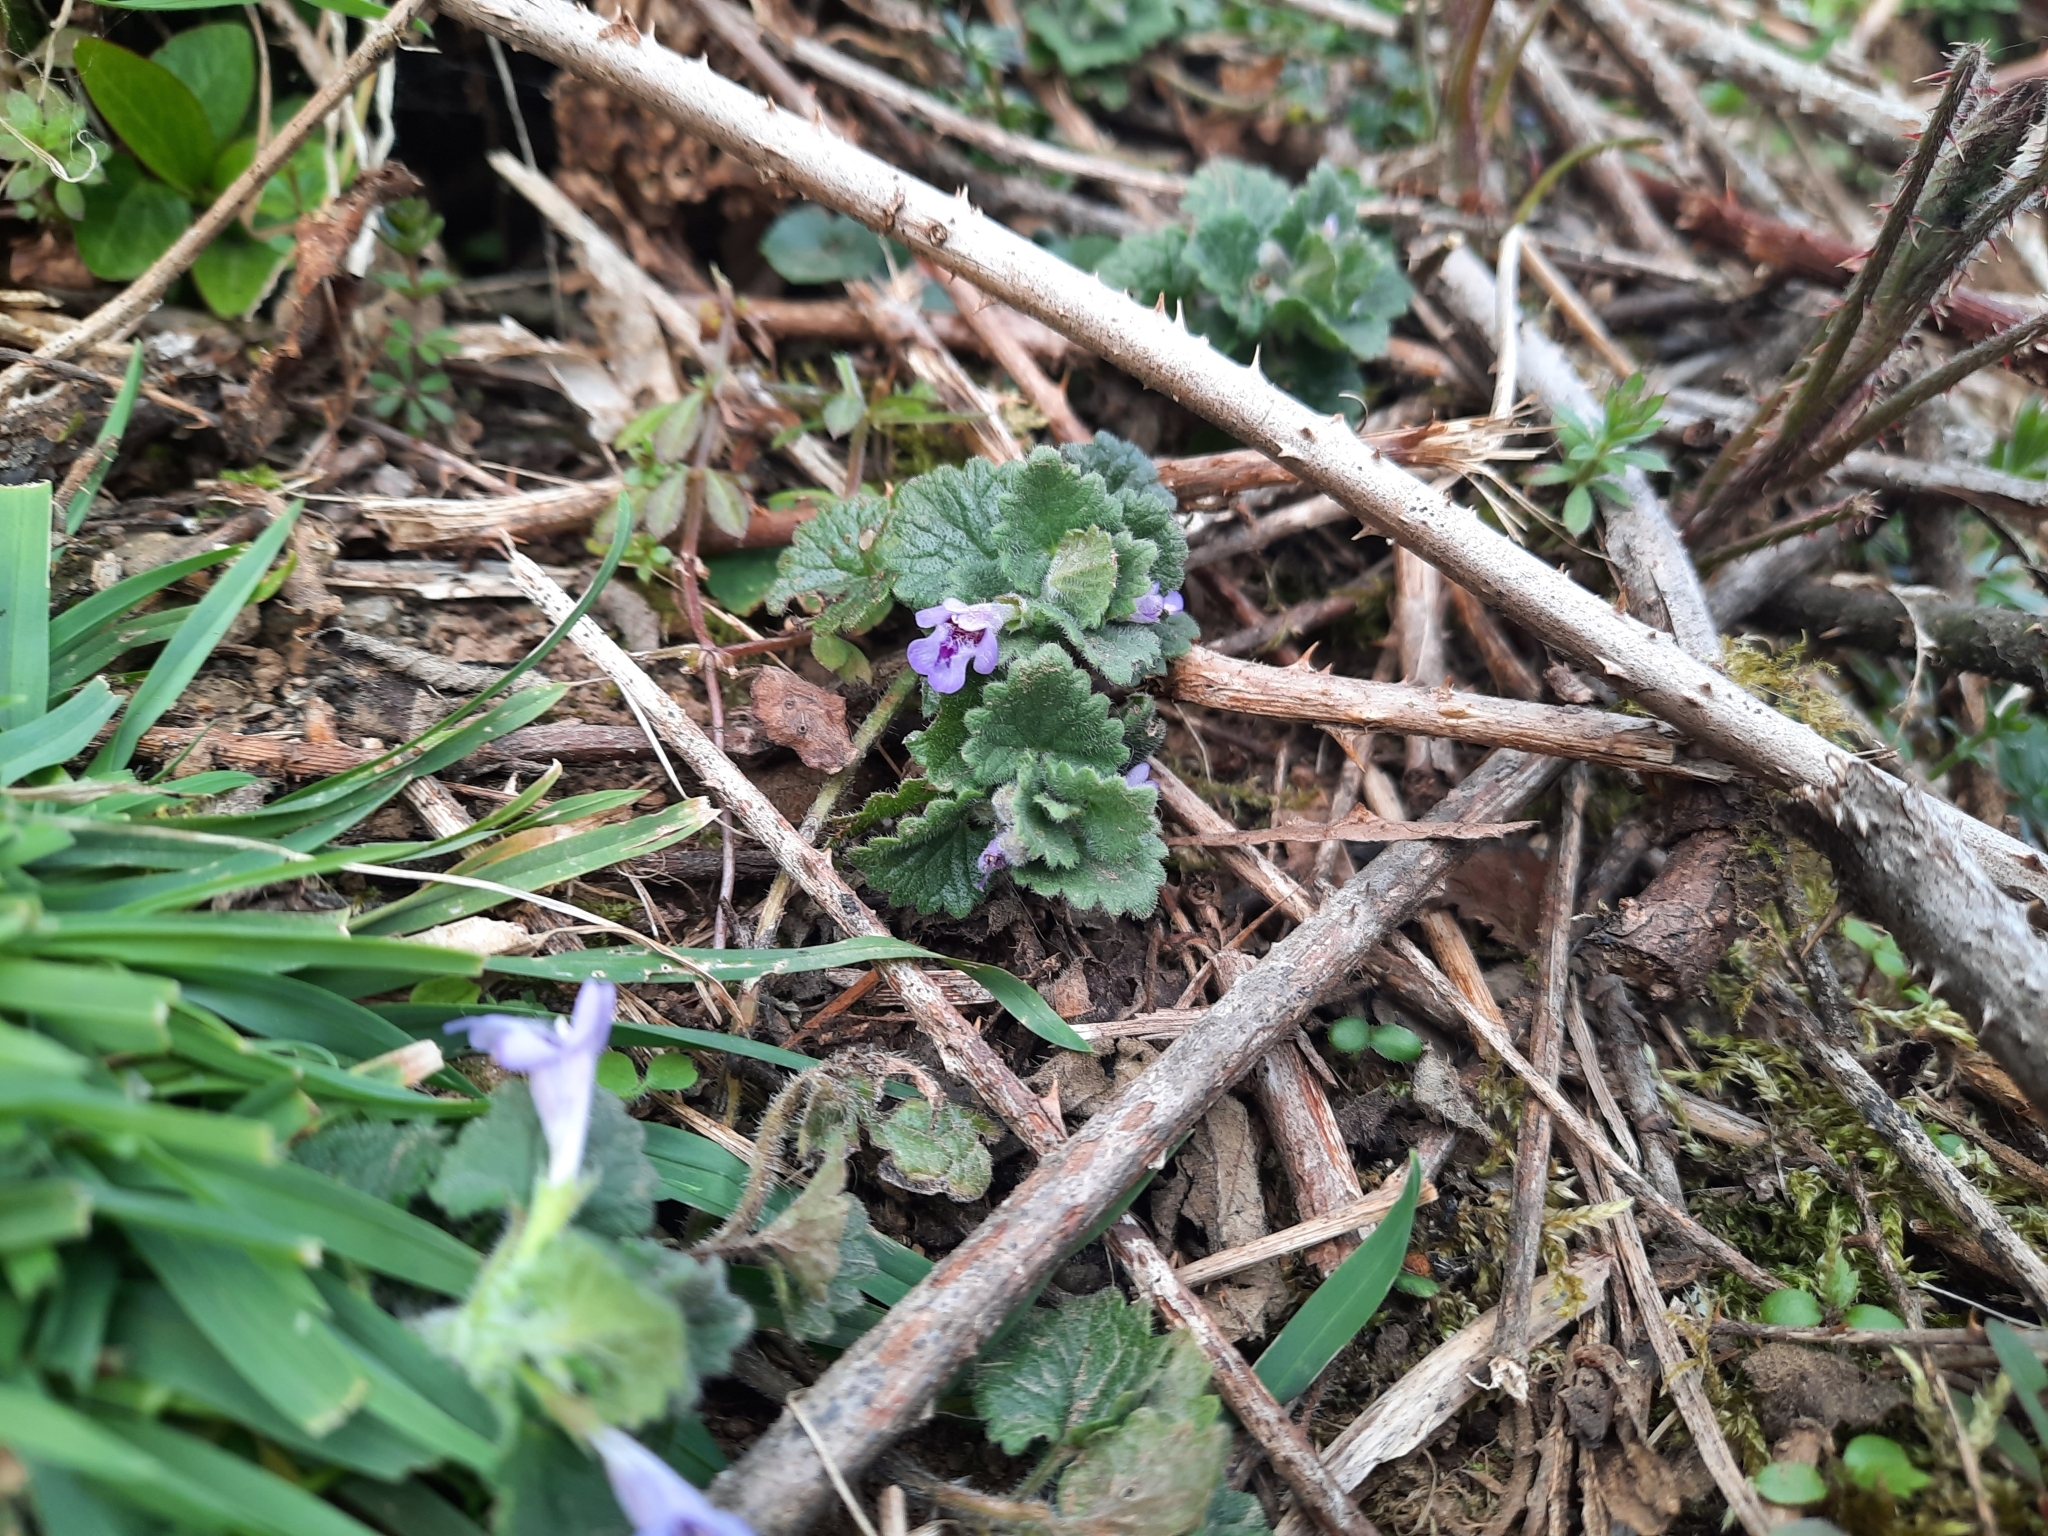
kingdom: Plantae
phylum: Tracheophyta
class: Magnoliopsida
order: Lamiales
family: Lamiaceae
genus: Glechoma
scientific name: Glechoma hederacea
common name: Ground ivy
